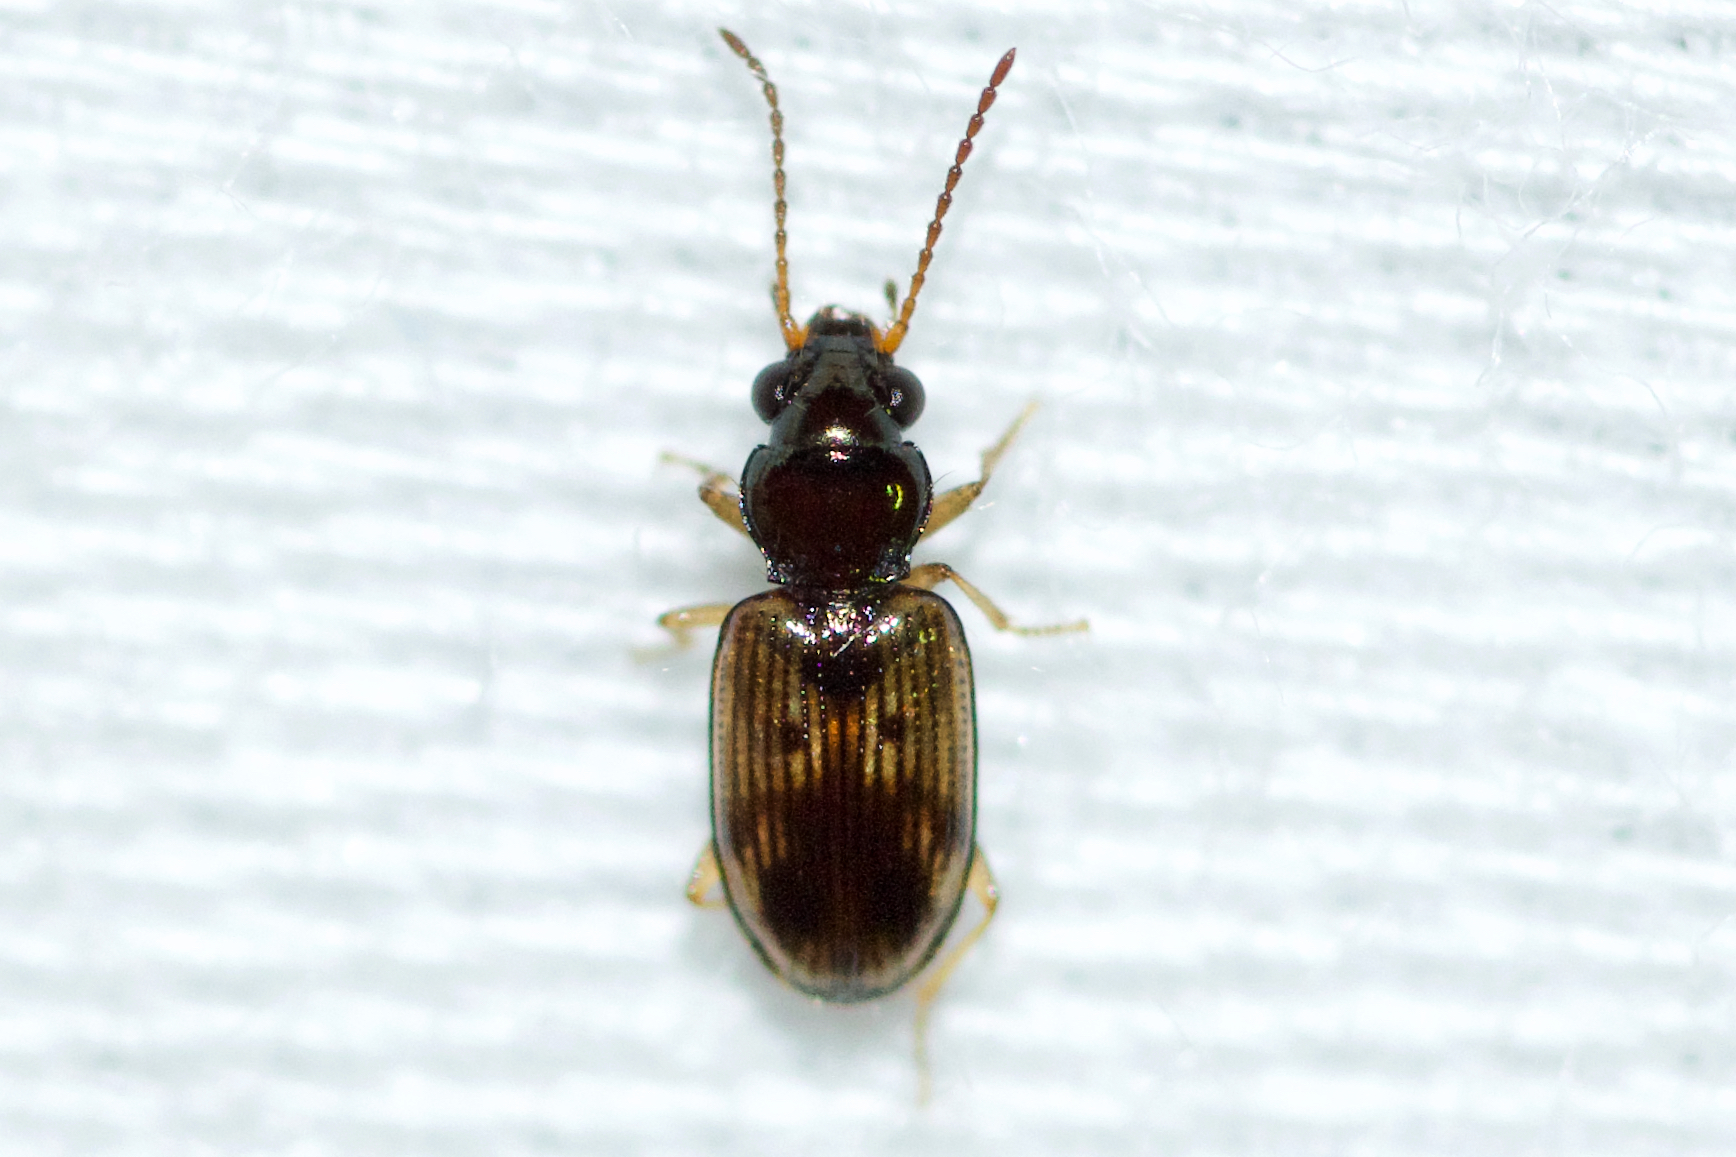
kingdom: Animalia
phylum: Arthropoda
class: Insecta
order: Coleoptera
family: Carabidae
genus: Bembidion
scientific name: Bembidion impotens
